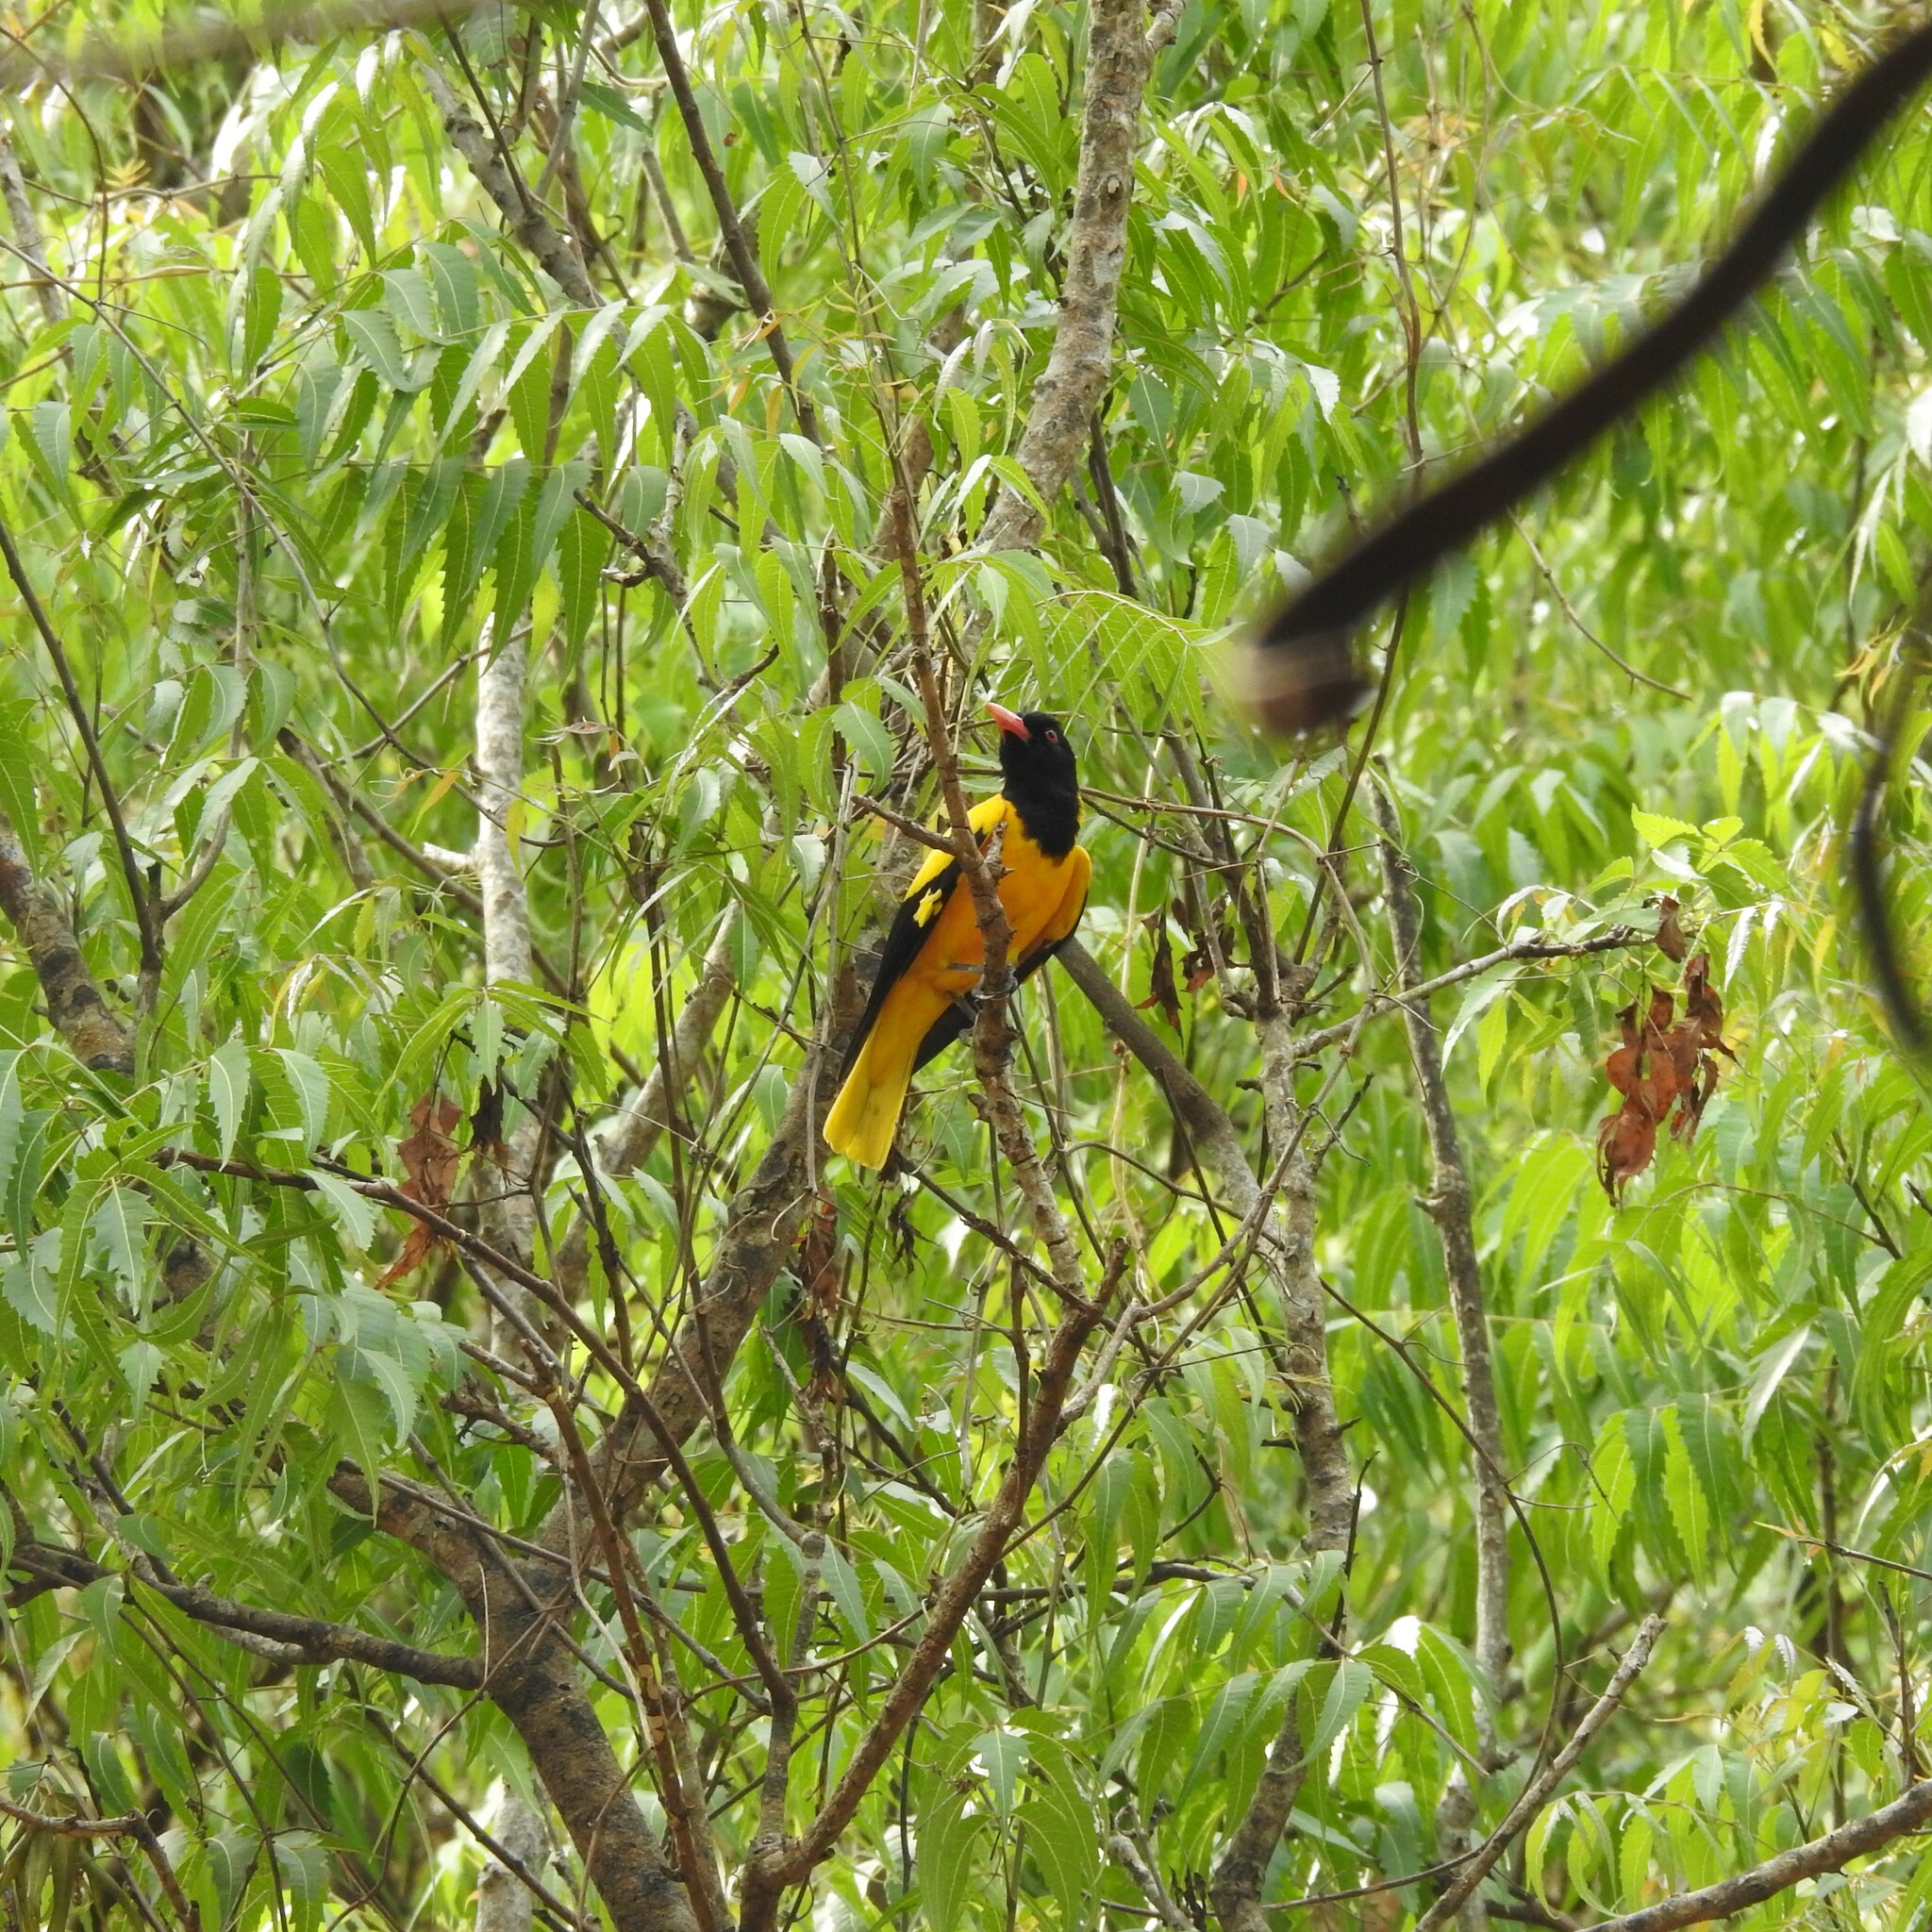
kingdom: Animalia
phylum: Chordata
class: Aves
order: Passeriformes
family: Oriolidae
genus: Oriolus
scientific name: Oriolus xanthornus
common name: Black-hooded oriole
